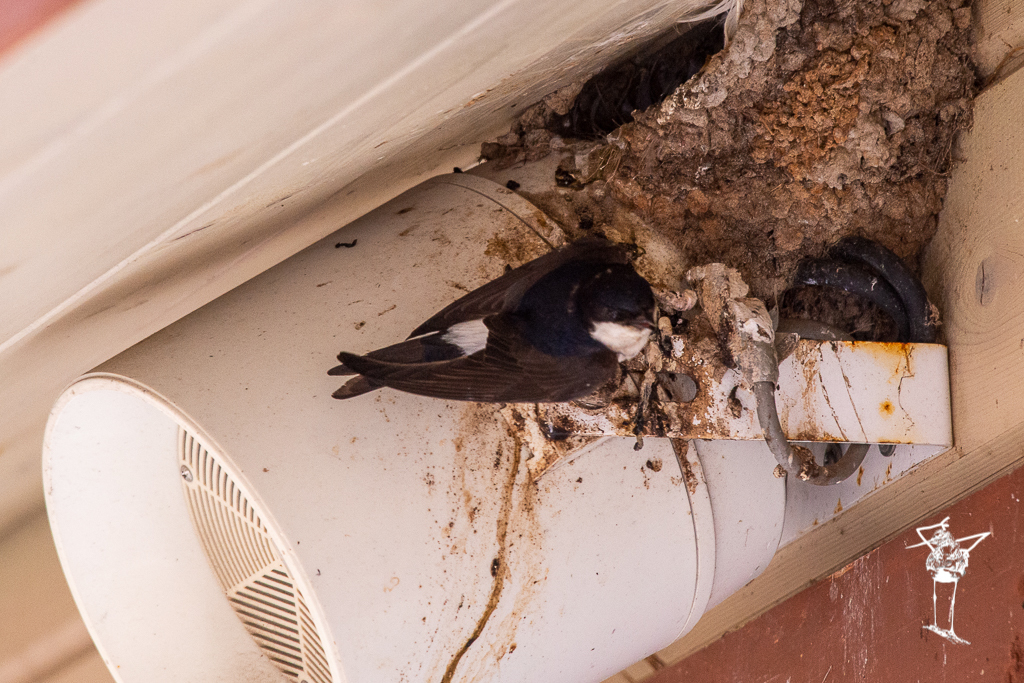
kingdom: Animalia
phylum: Chordata
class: Aves
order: Passeriformes
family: Hirundinidae
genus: Delichon
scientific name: Delichon urbicum
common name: Common house martin
